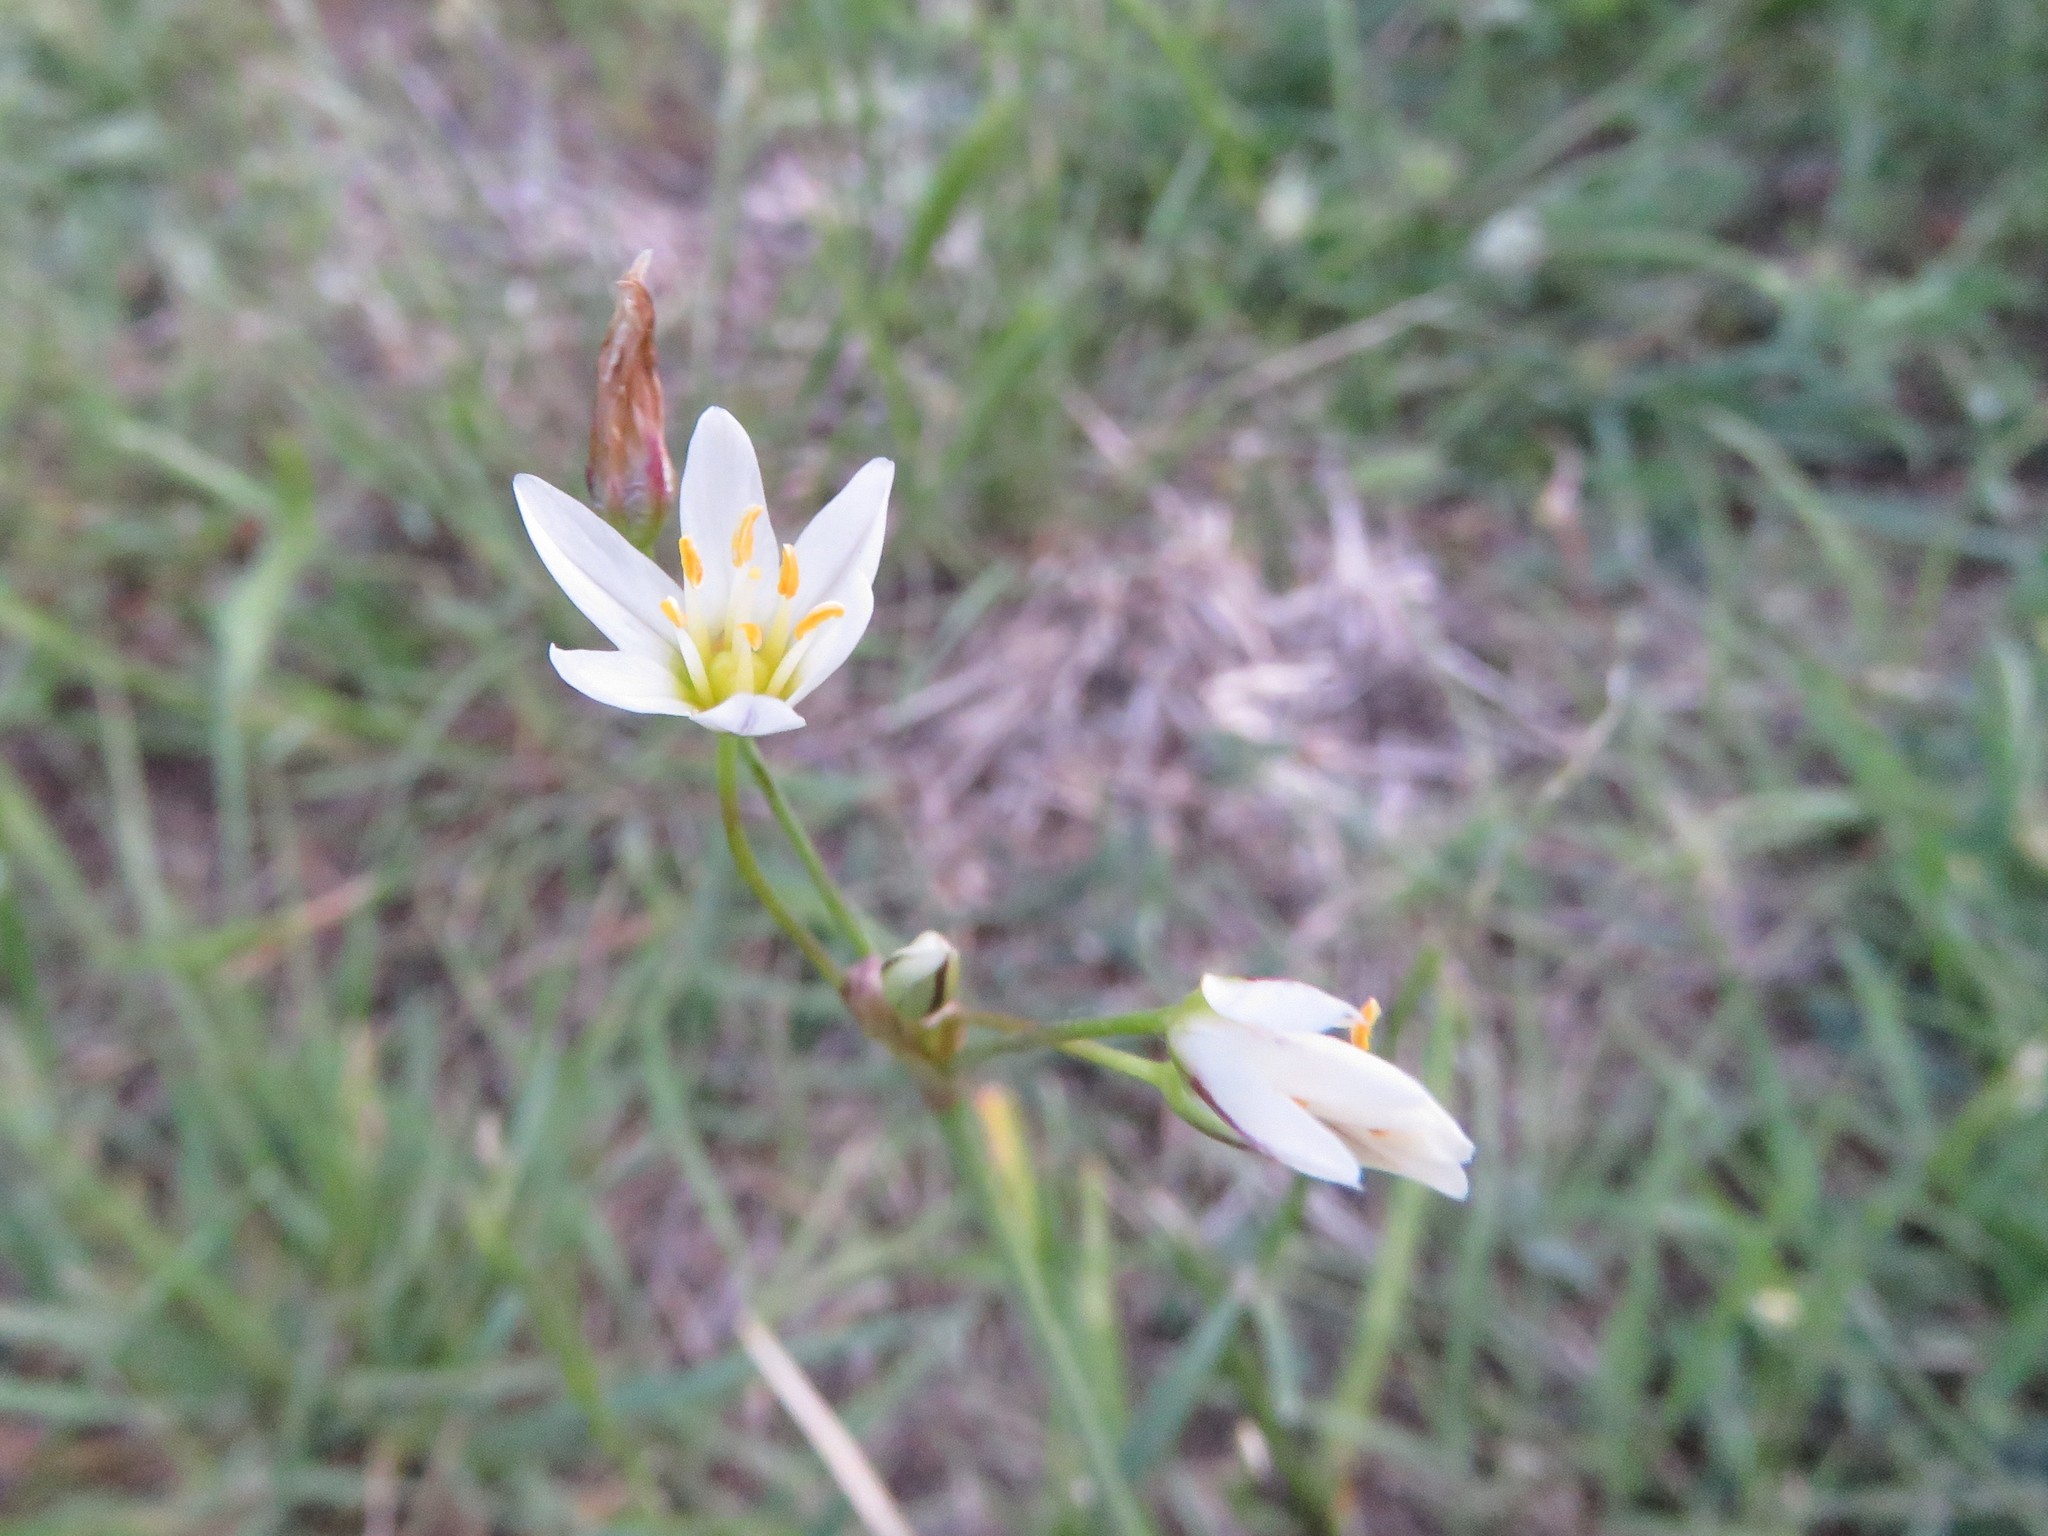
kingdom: Plantae
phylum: Tracheophyta
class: Liliopsida
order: Asparagales
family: Amaryllidaceae
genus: Nothoscordum
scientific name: Nothoscordum bivalve
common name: Crow-poison
